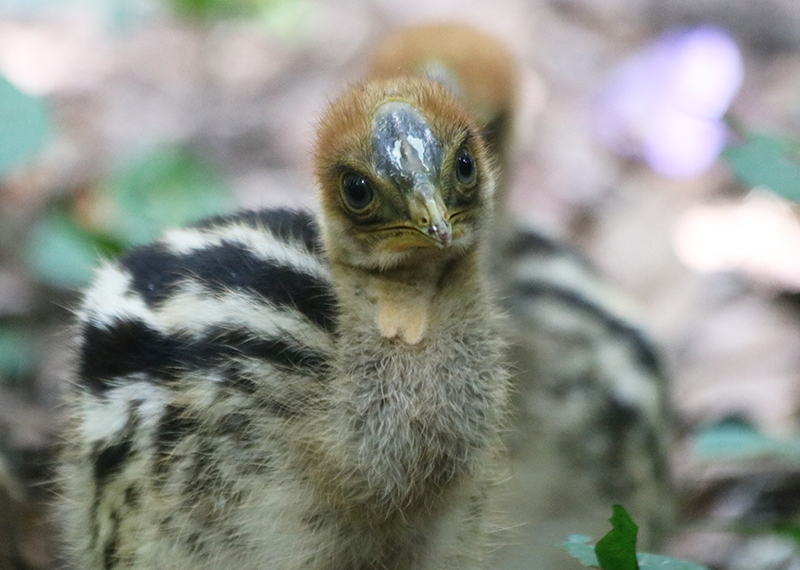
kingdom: Animalia
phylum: Chordata
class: Aves
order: Casuariiformes
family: Casuariidae
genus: Casuarius
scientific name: Casuarius casuarius
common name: Southern cassowary
